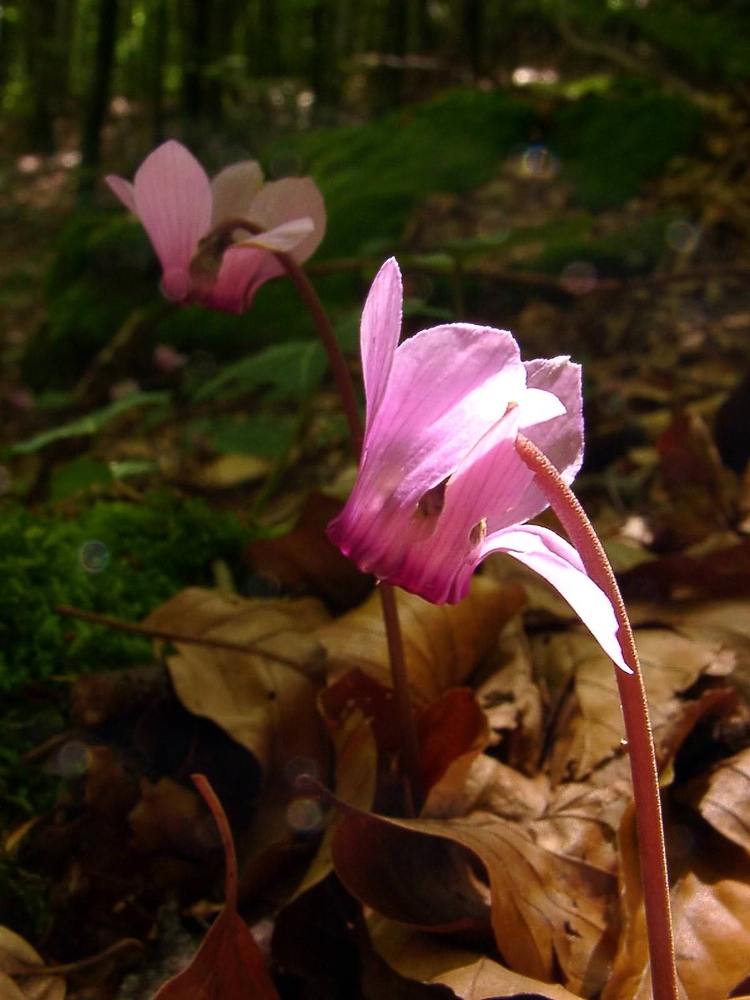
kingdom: Plantae
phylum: Tracheophyta
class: Magnoliopsida
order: Ericales
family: Primulaceae
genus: Cyclamen
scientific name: Cyclamen purpurascens
